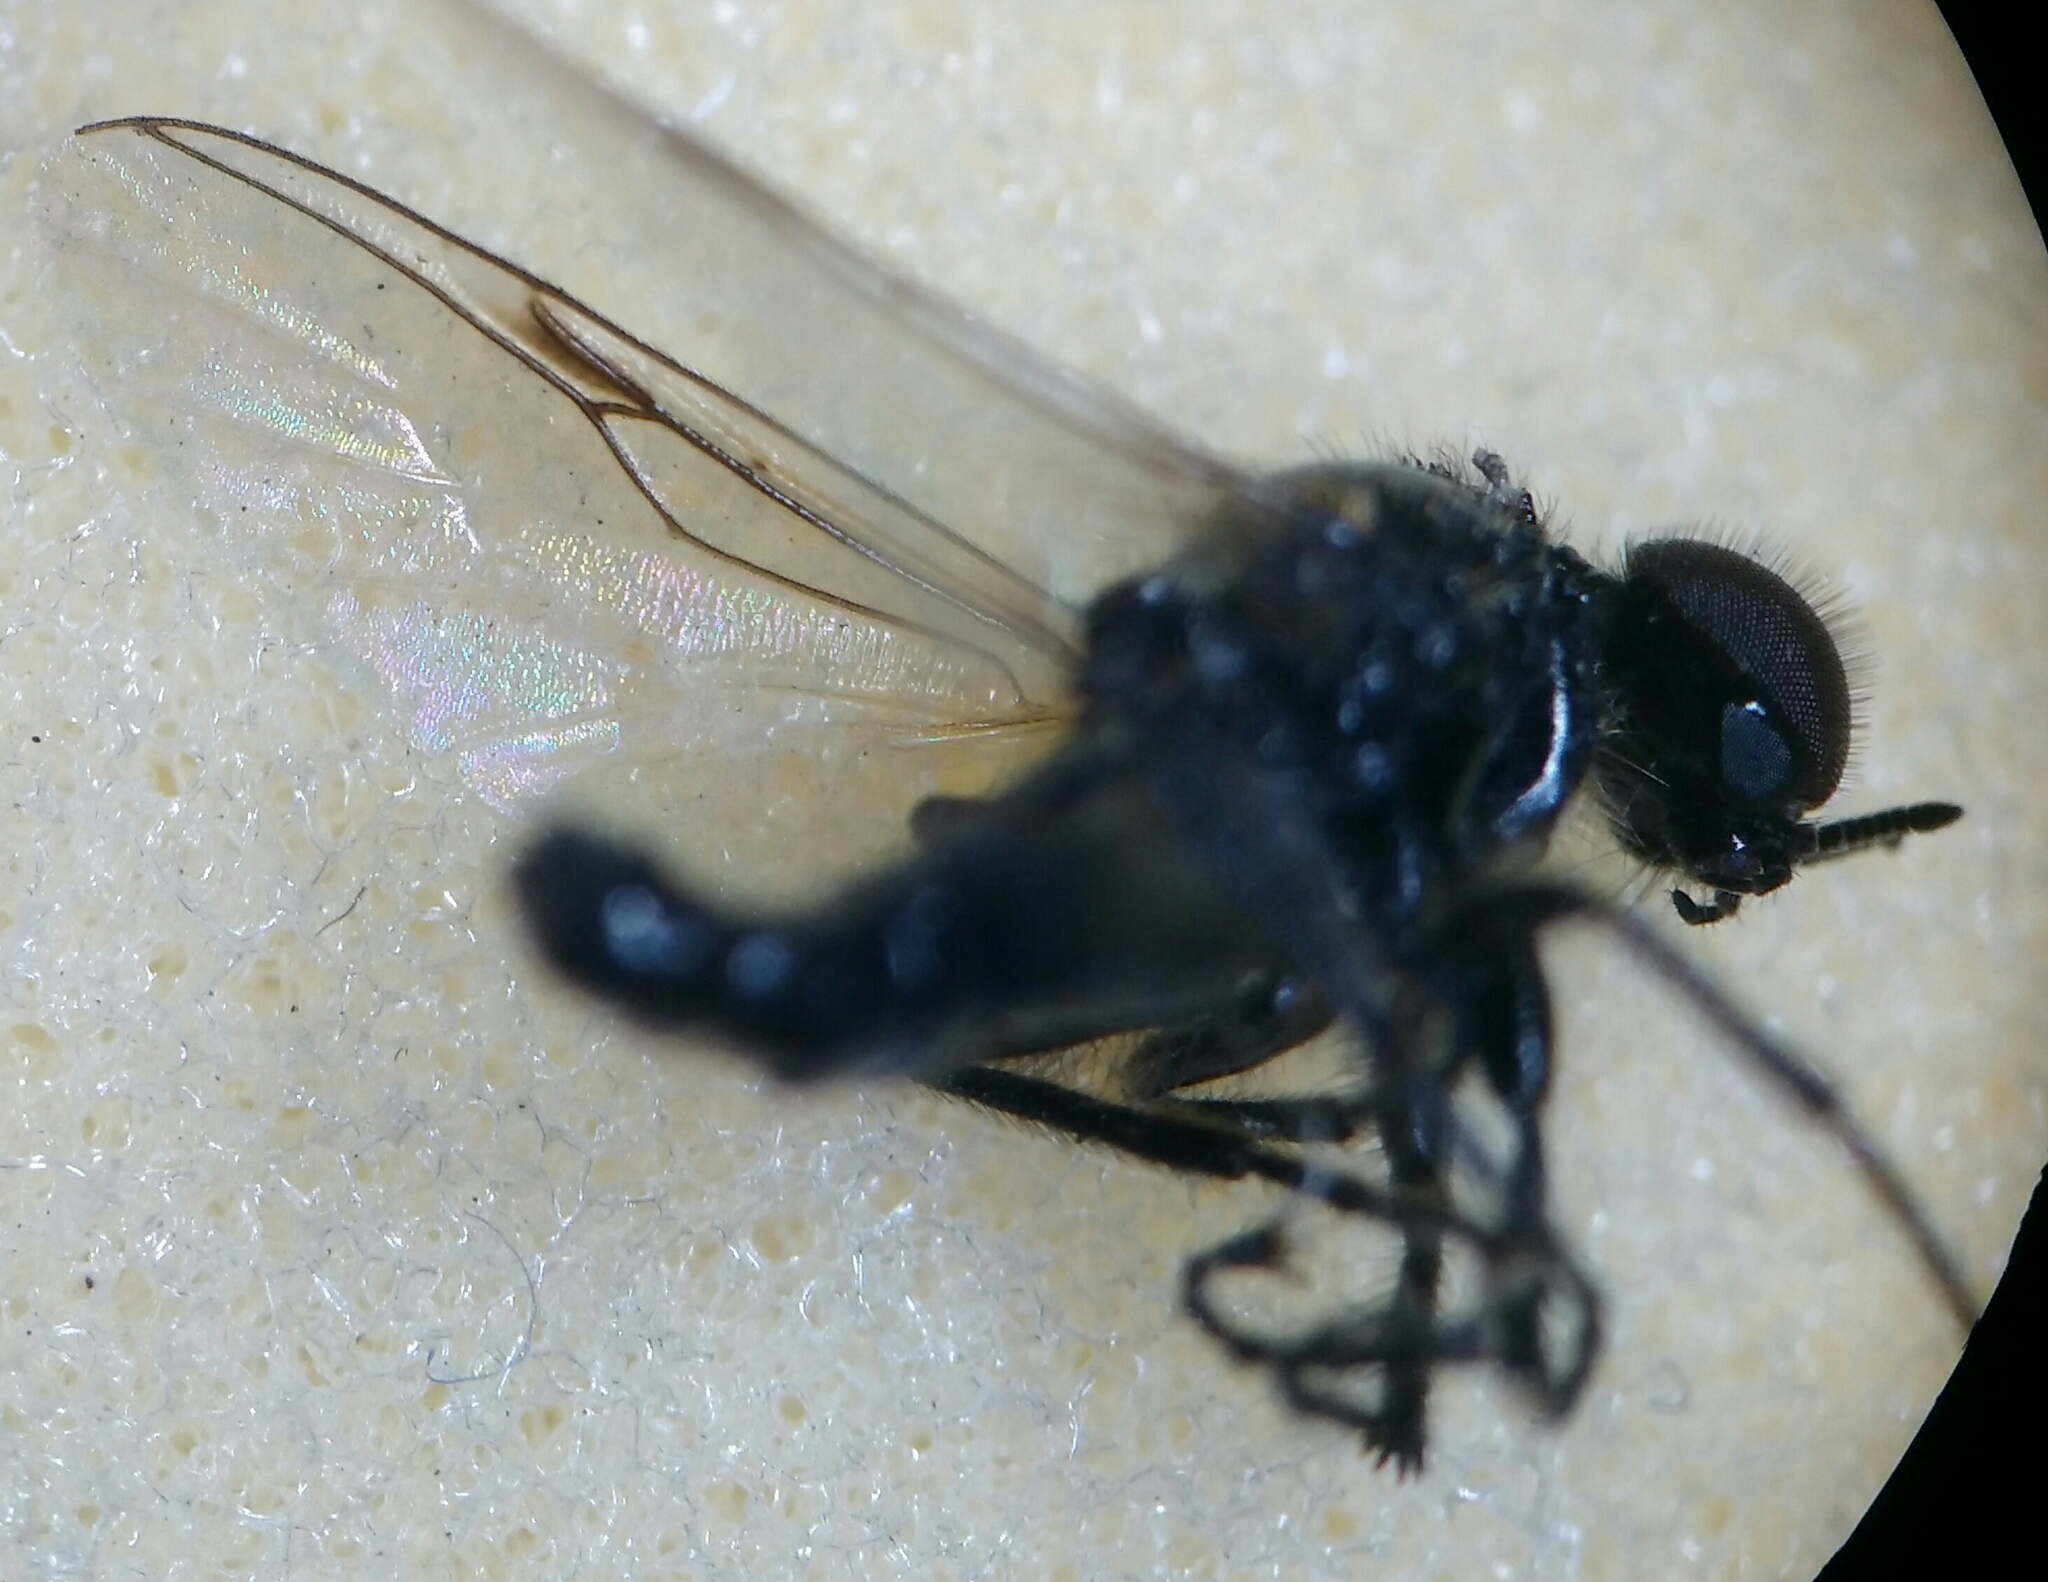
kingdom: Animalia
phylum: Arthropoda
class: Insecta
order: Diptera
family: Bibionidae
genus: Dilophus
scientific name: Dilophus febrilis
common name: Fever fly
